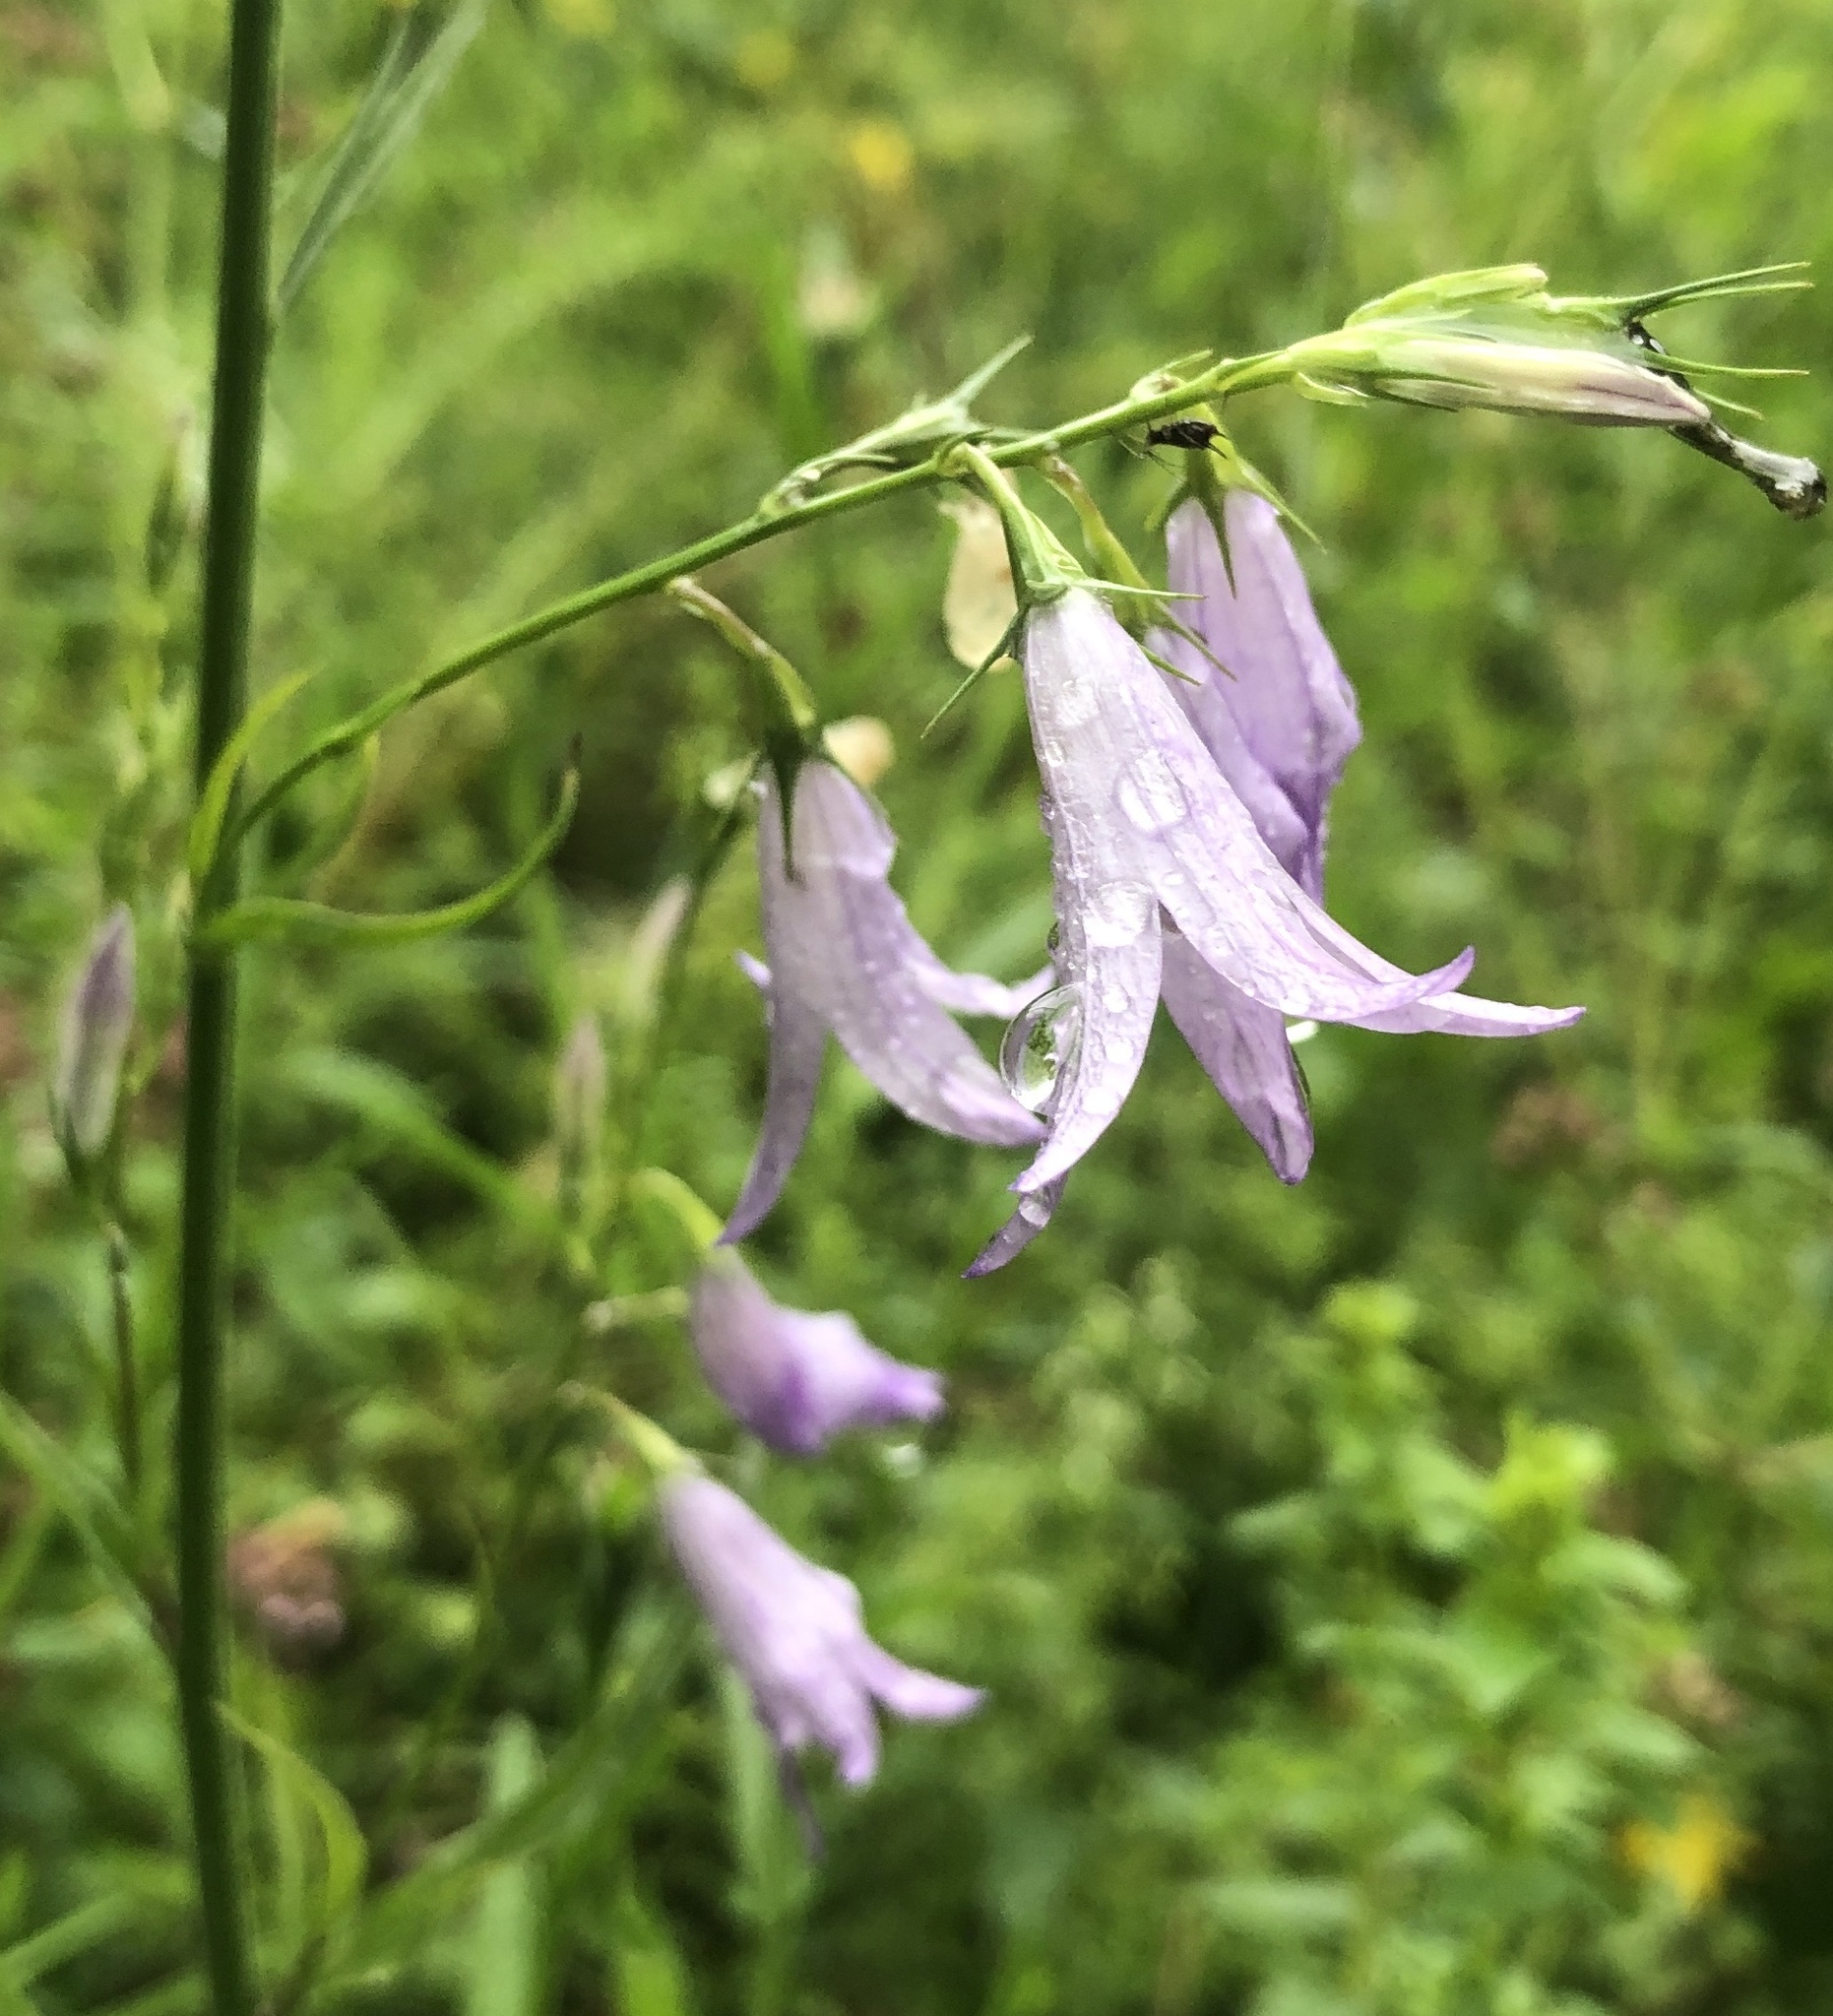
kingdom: Plantae
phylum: Tracheophyta
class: Magnoliopsida
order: Asterales
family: Campanulaceae
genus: Campanula
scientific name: Campanula rapunculus
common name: Rampion bellflower
